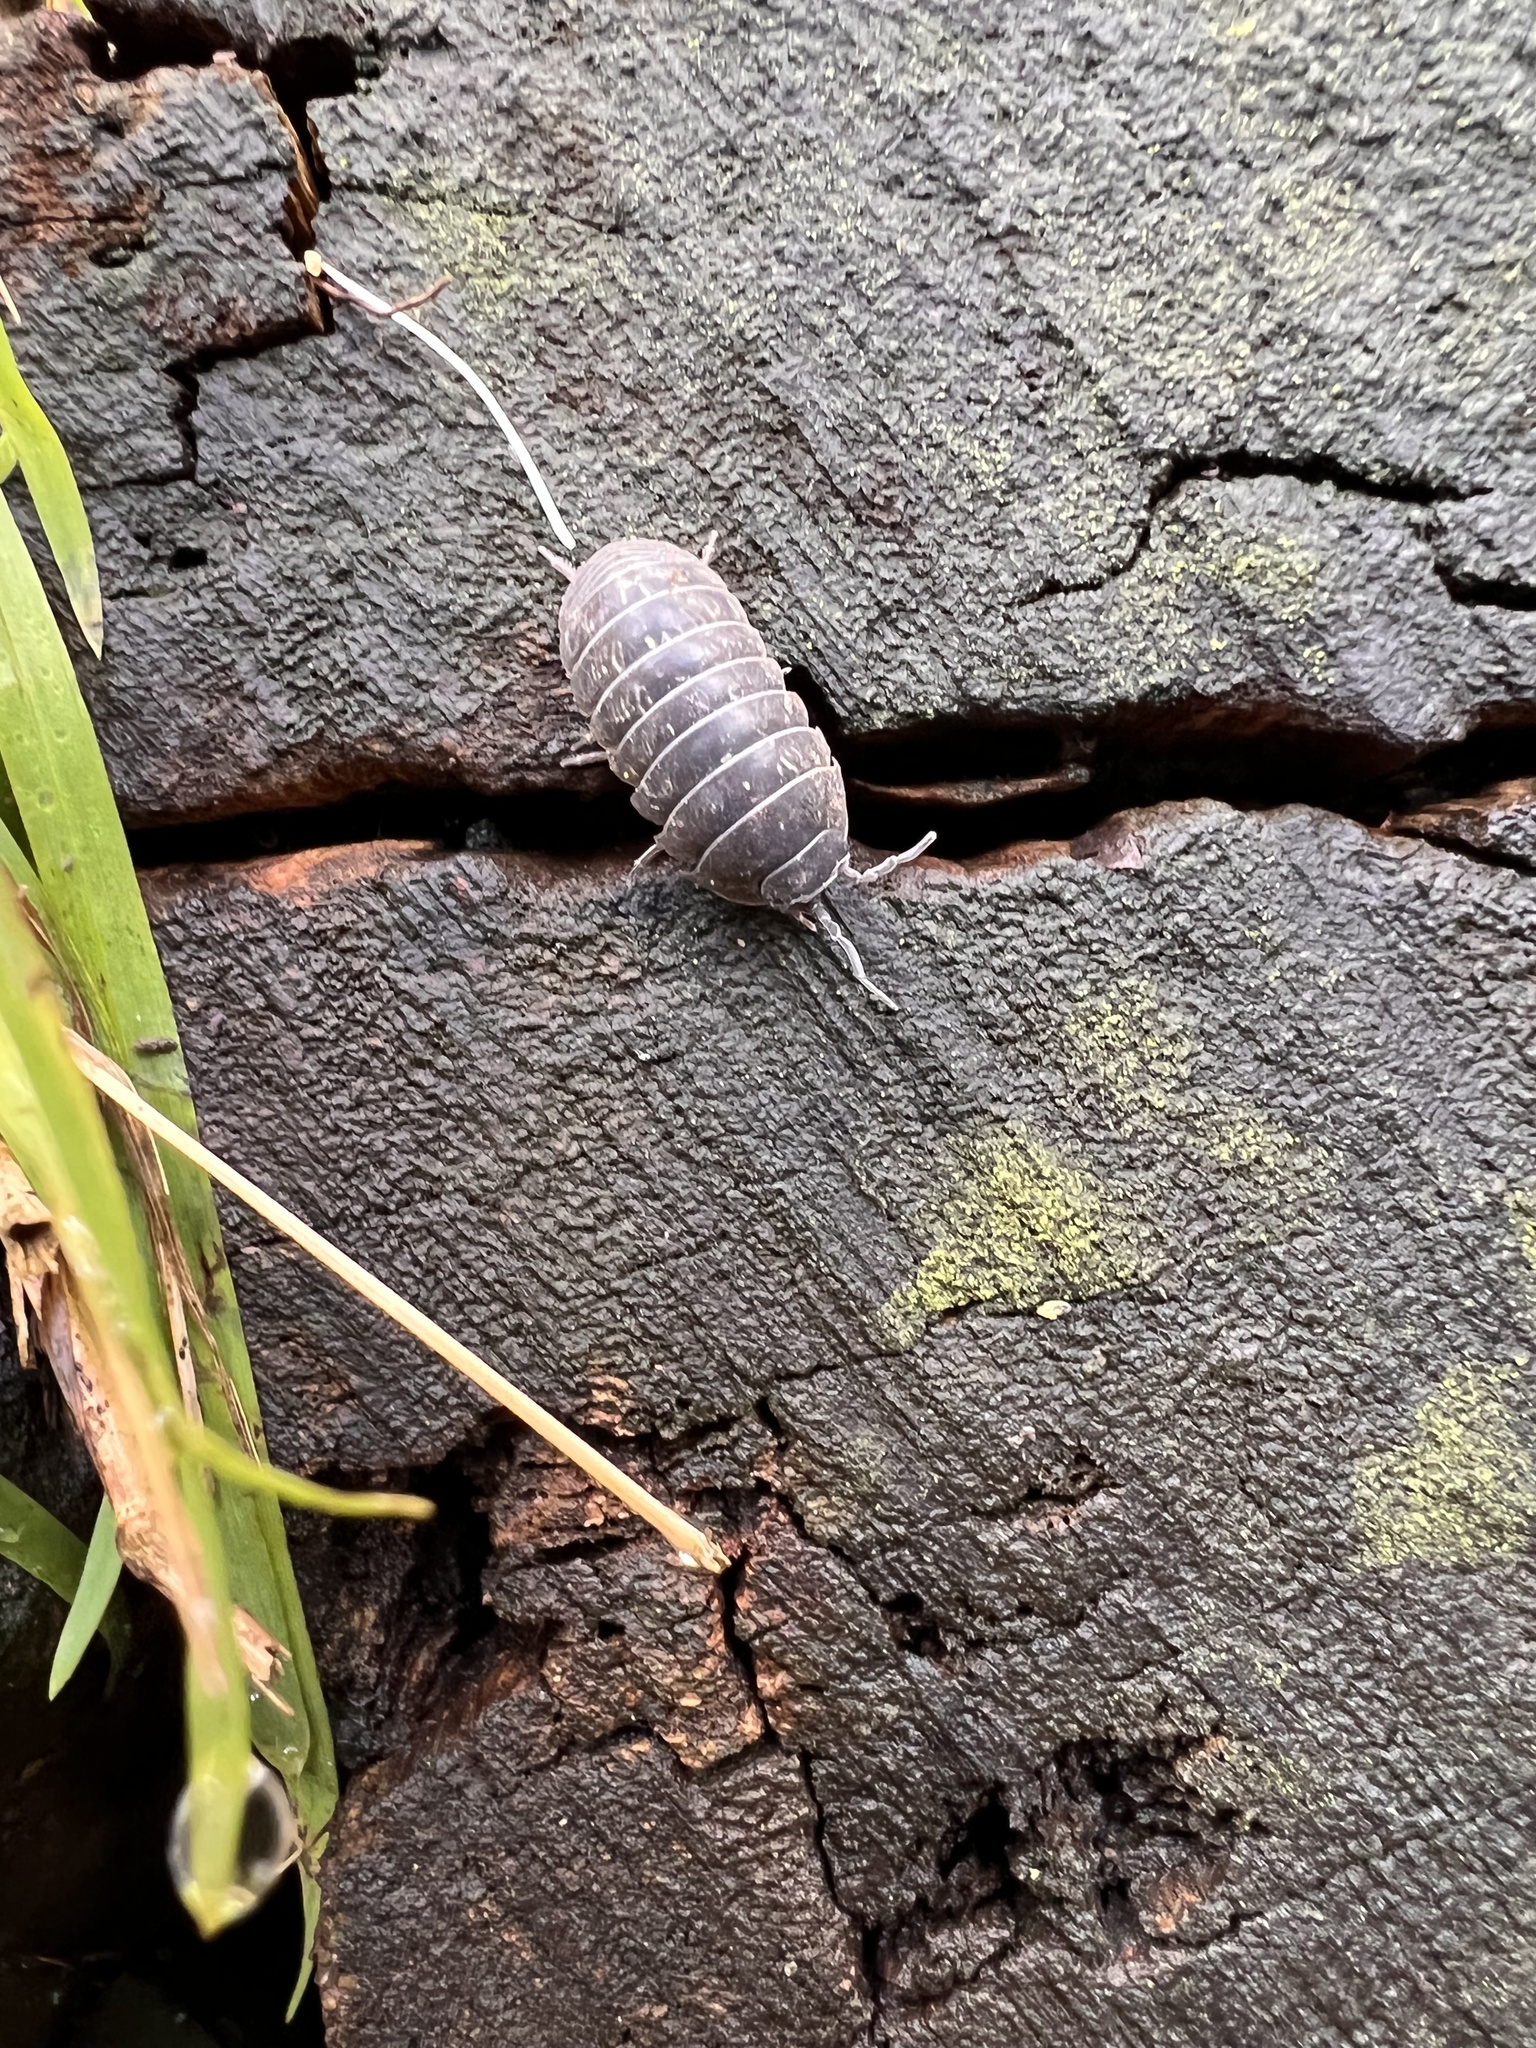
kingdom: Animalia
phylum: Arthropoda
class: Malacostraca
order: Isopoda
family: Armadillidiidae
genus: Armadillidium
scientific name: Armadillidium vulgare
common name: Common pill woodlouse
